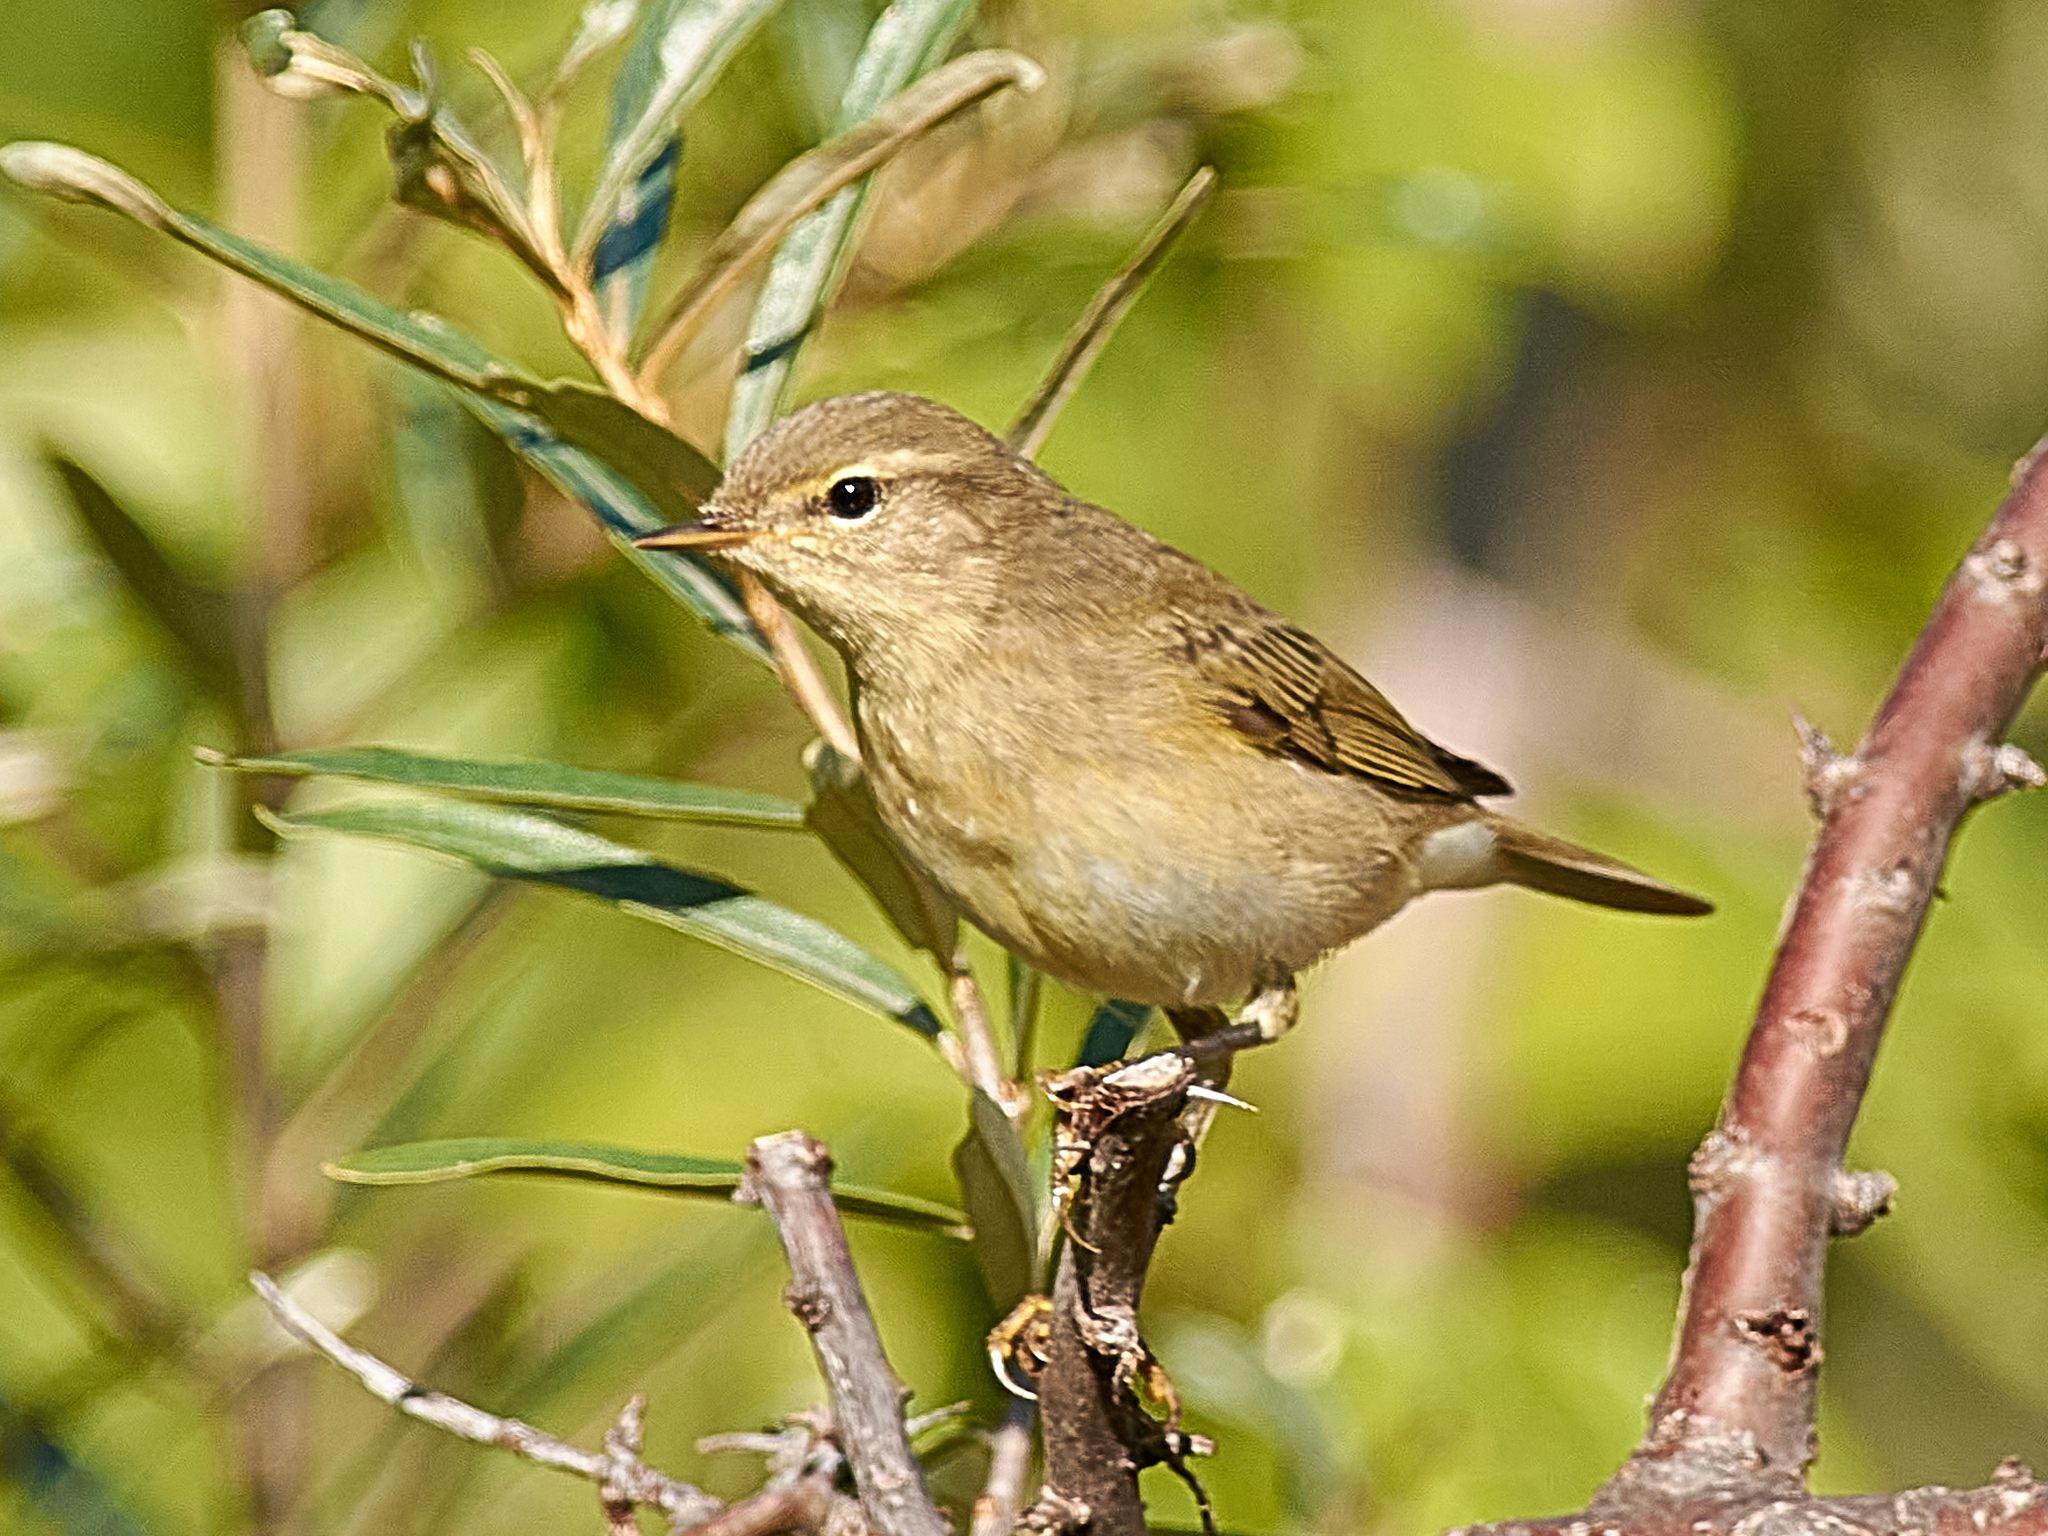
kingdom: Animalia
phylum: Chordata
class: Aves
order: Passeriformes
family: Phylloscopidae
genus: Phylloscopus
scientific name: Phylloscopus trochilus
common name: Willow warbler
